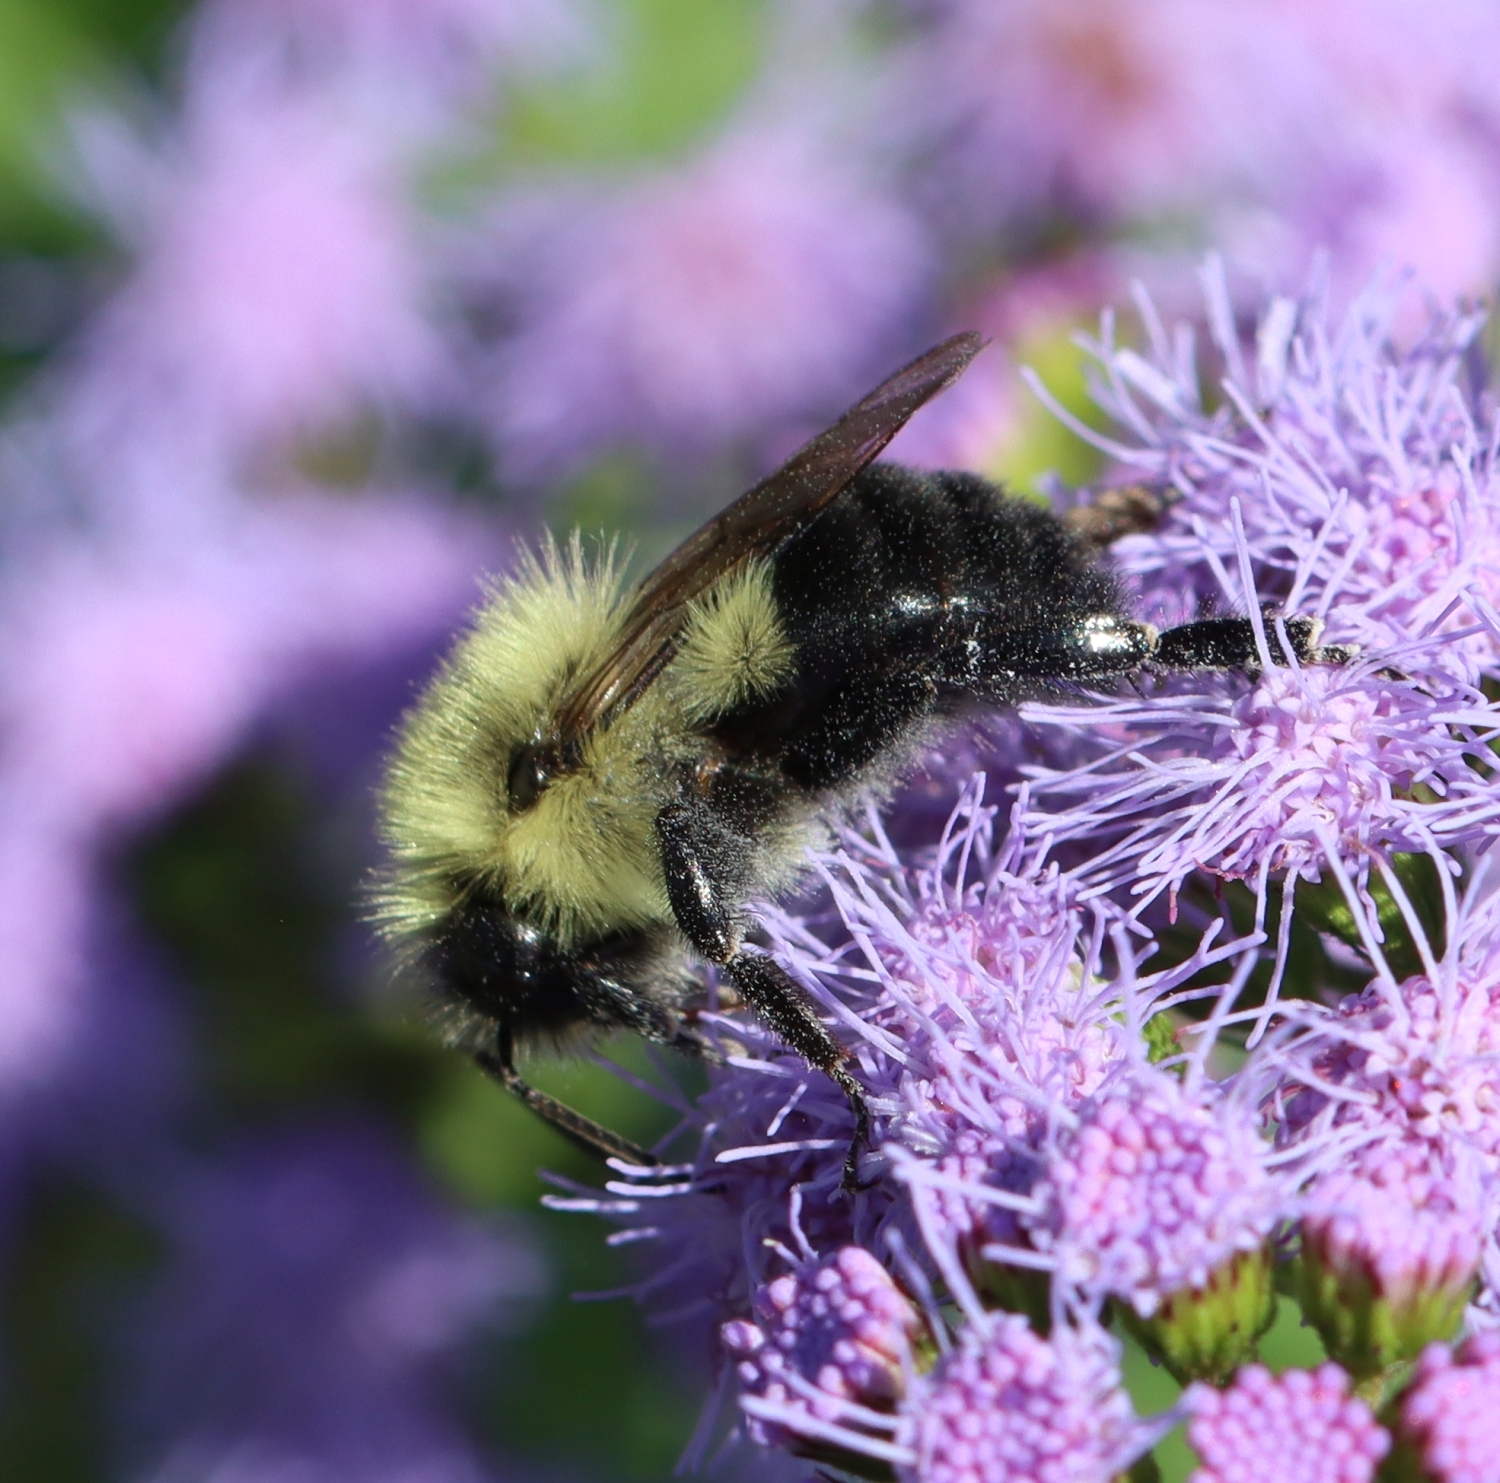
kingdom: Animalia
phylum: Arthropoda
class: Insecta
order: Hymenoptera
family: Apidae
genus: Bombus
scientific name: Bombus impatiens
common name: Common eastern bumble bee
